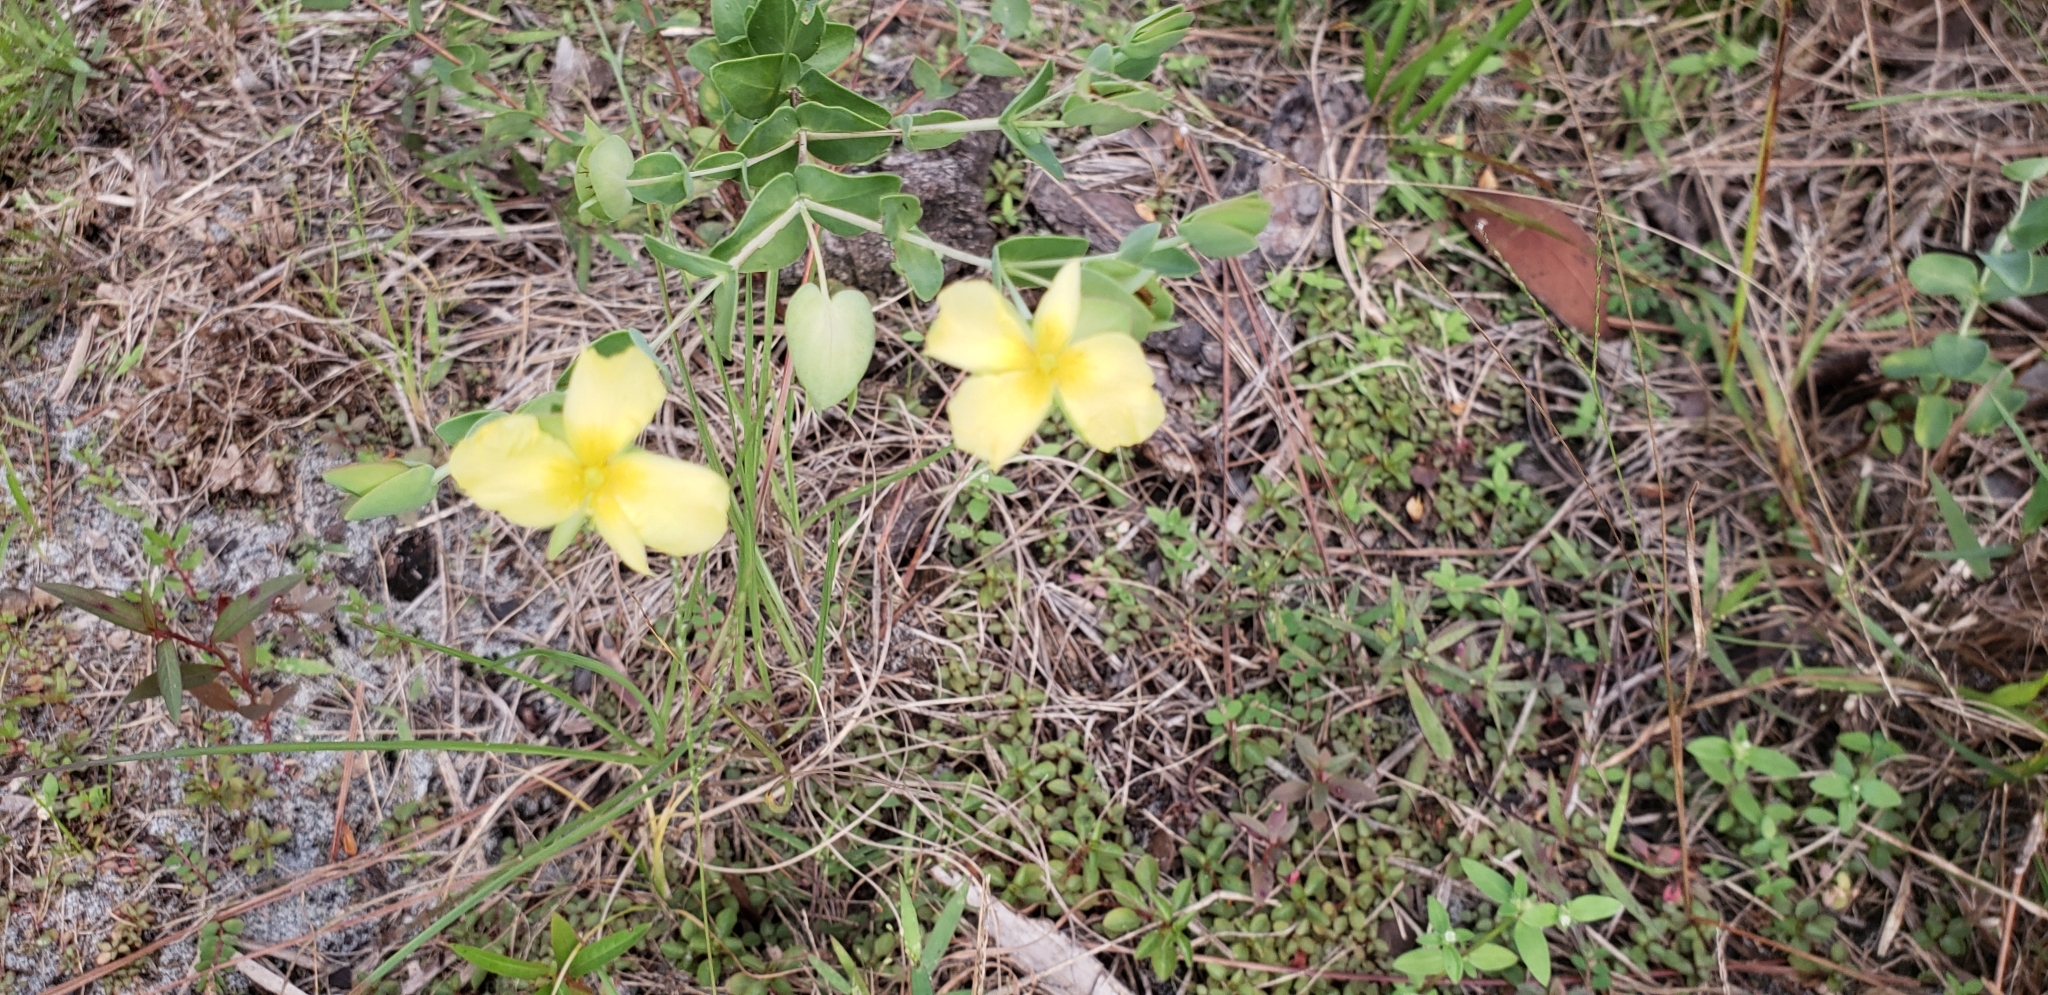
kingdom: Plantae
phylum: Tracheophyta
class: Magnoliopsida
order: Malpighiales
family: Hypericaceae
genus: Hypericum
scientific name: Hypericum tetrapetalum
